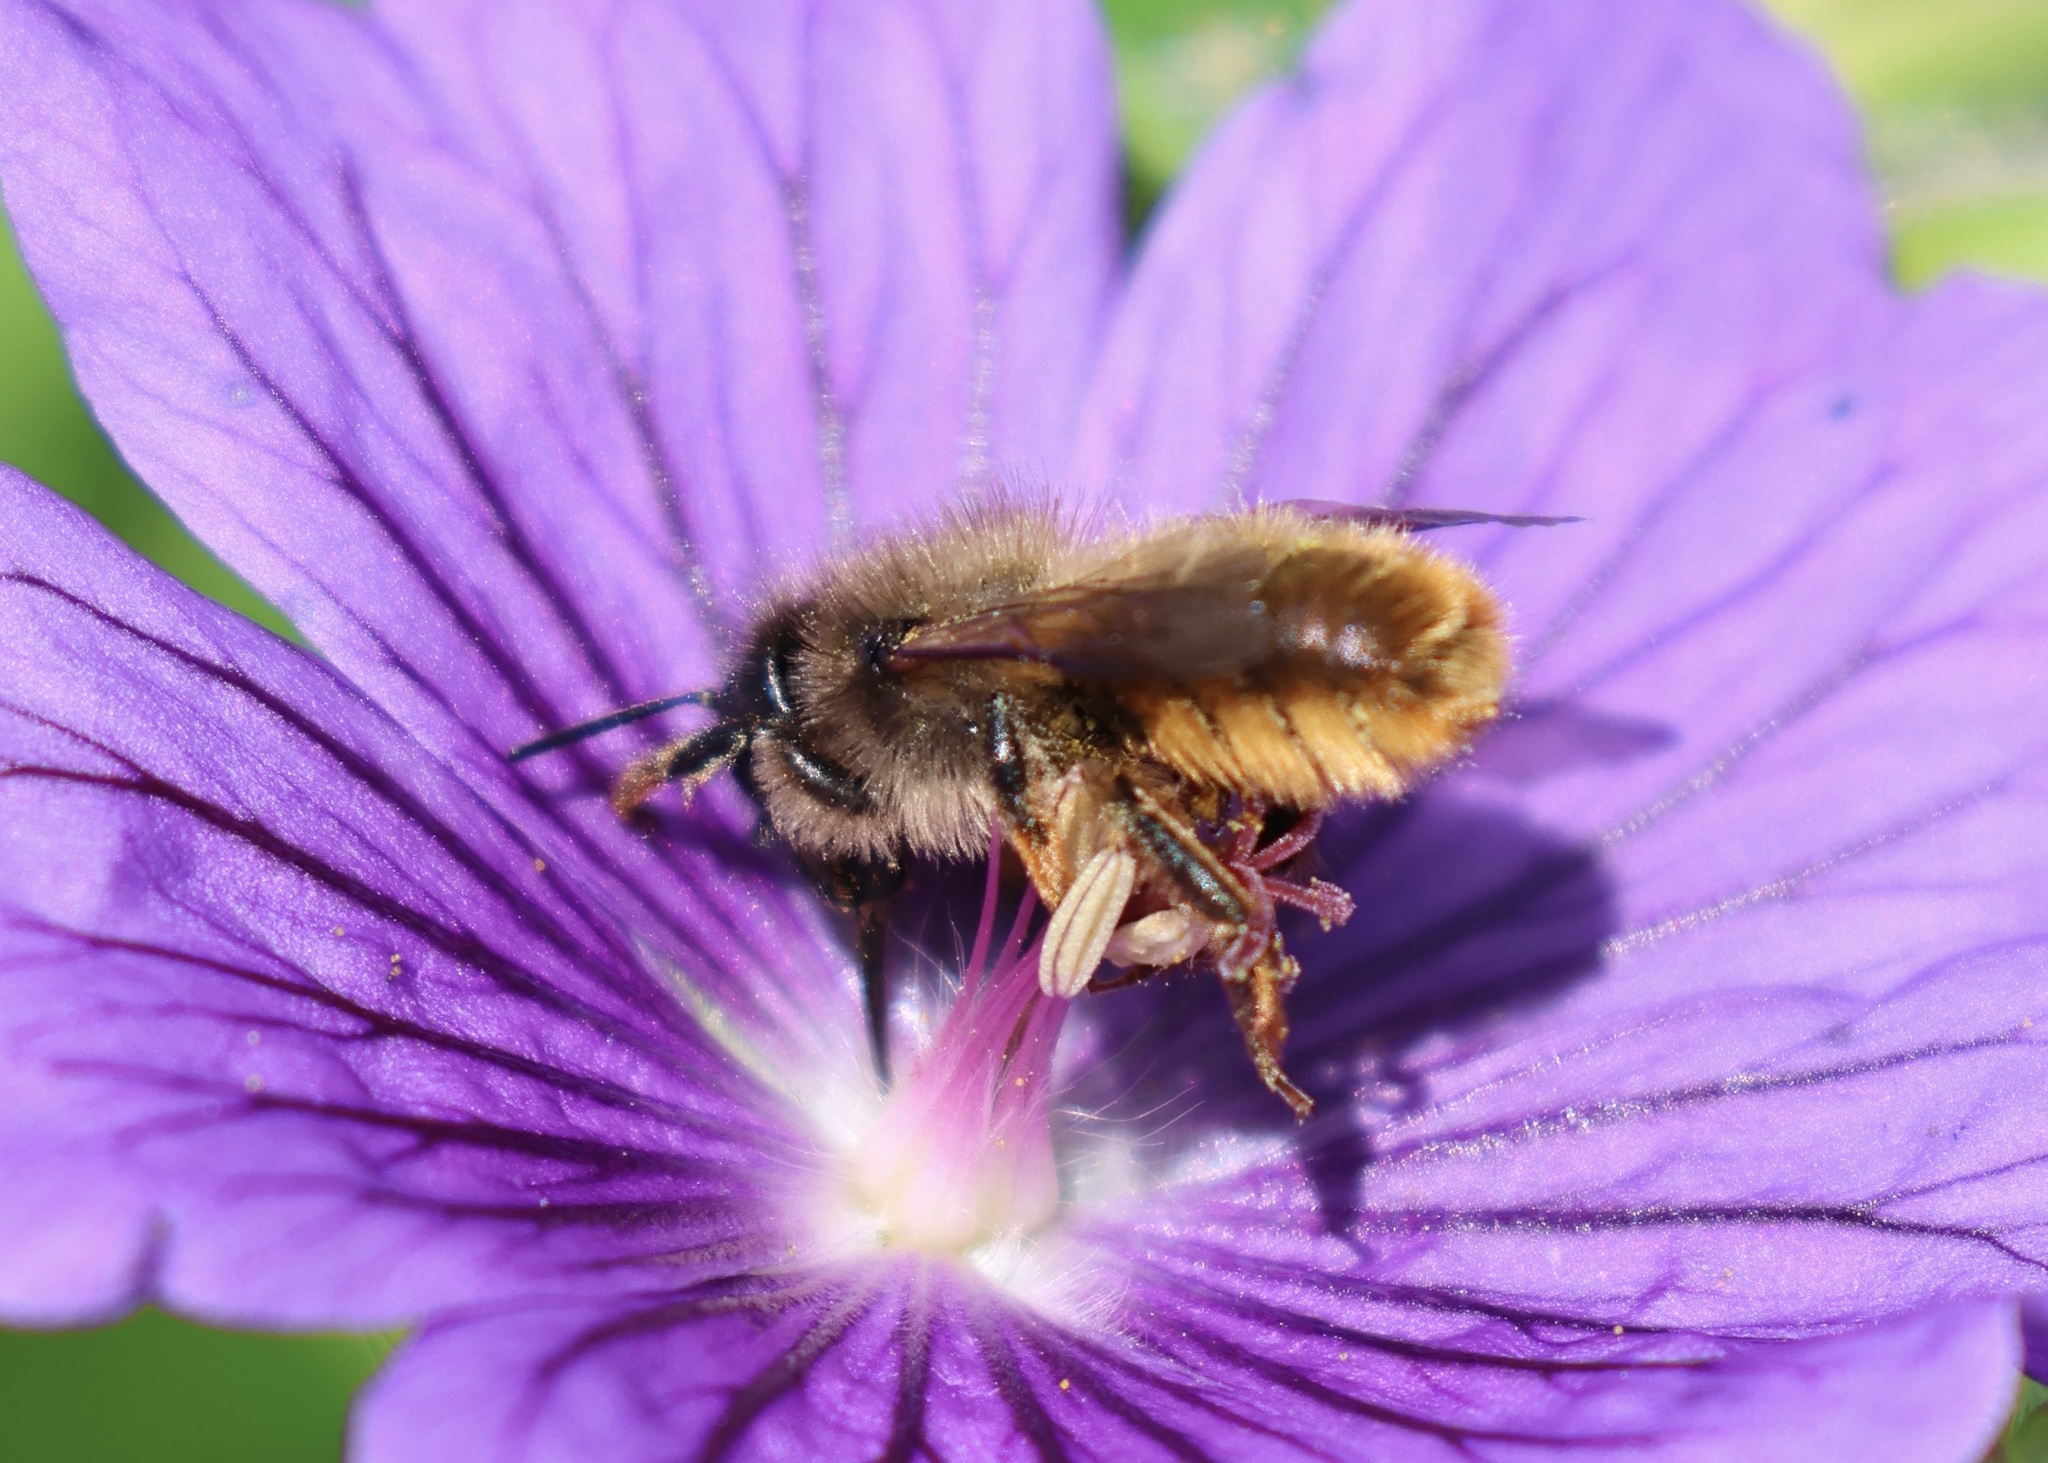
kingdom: Animalia
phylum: Arthropoda
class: Insecta
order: Hymenoptera
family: Megachilidae
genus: Osmia
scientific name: Osmia bicornis
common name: Red mason bee
